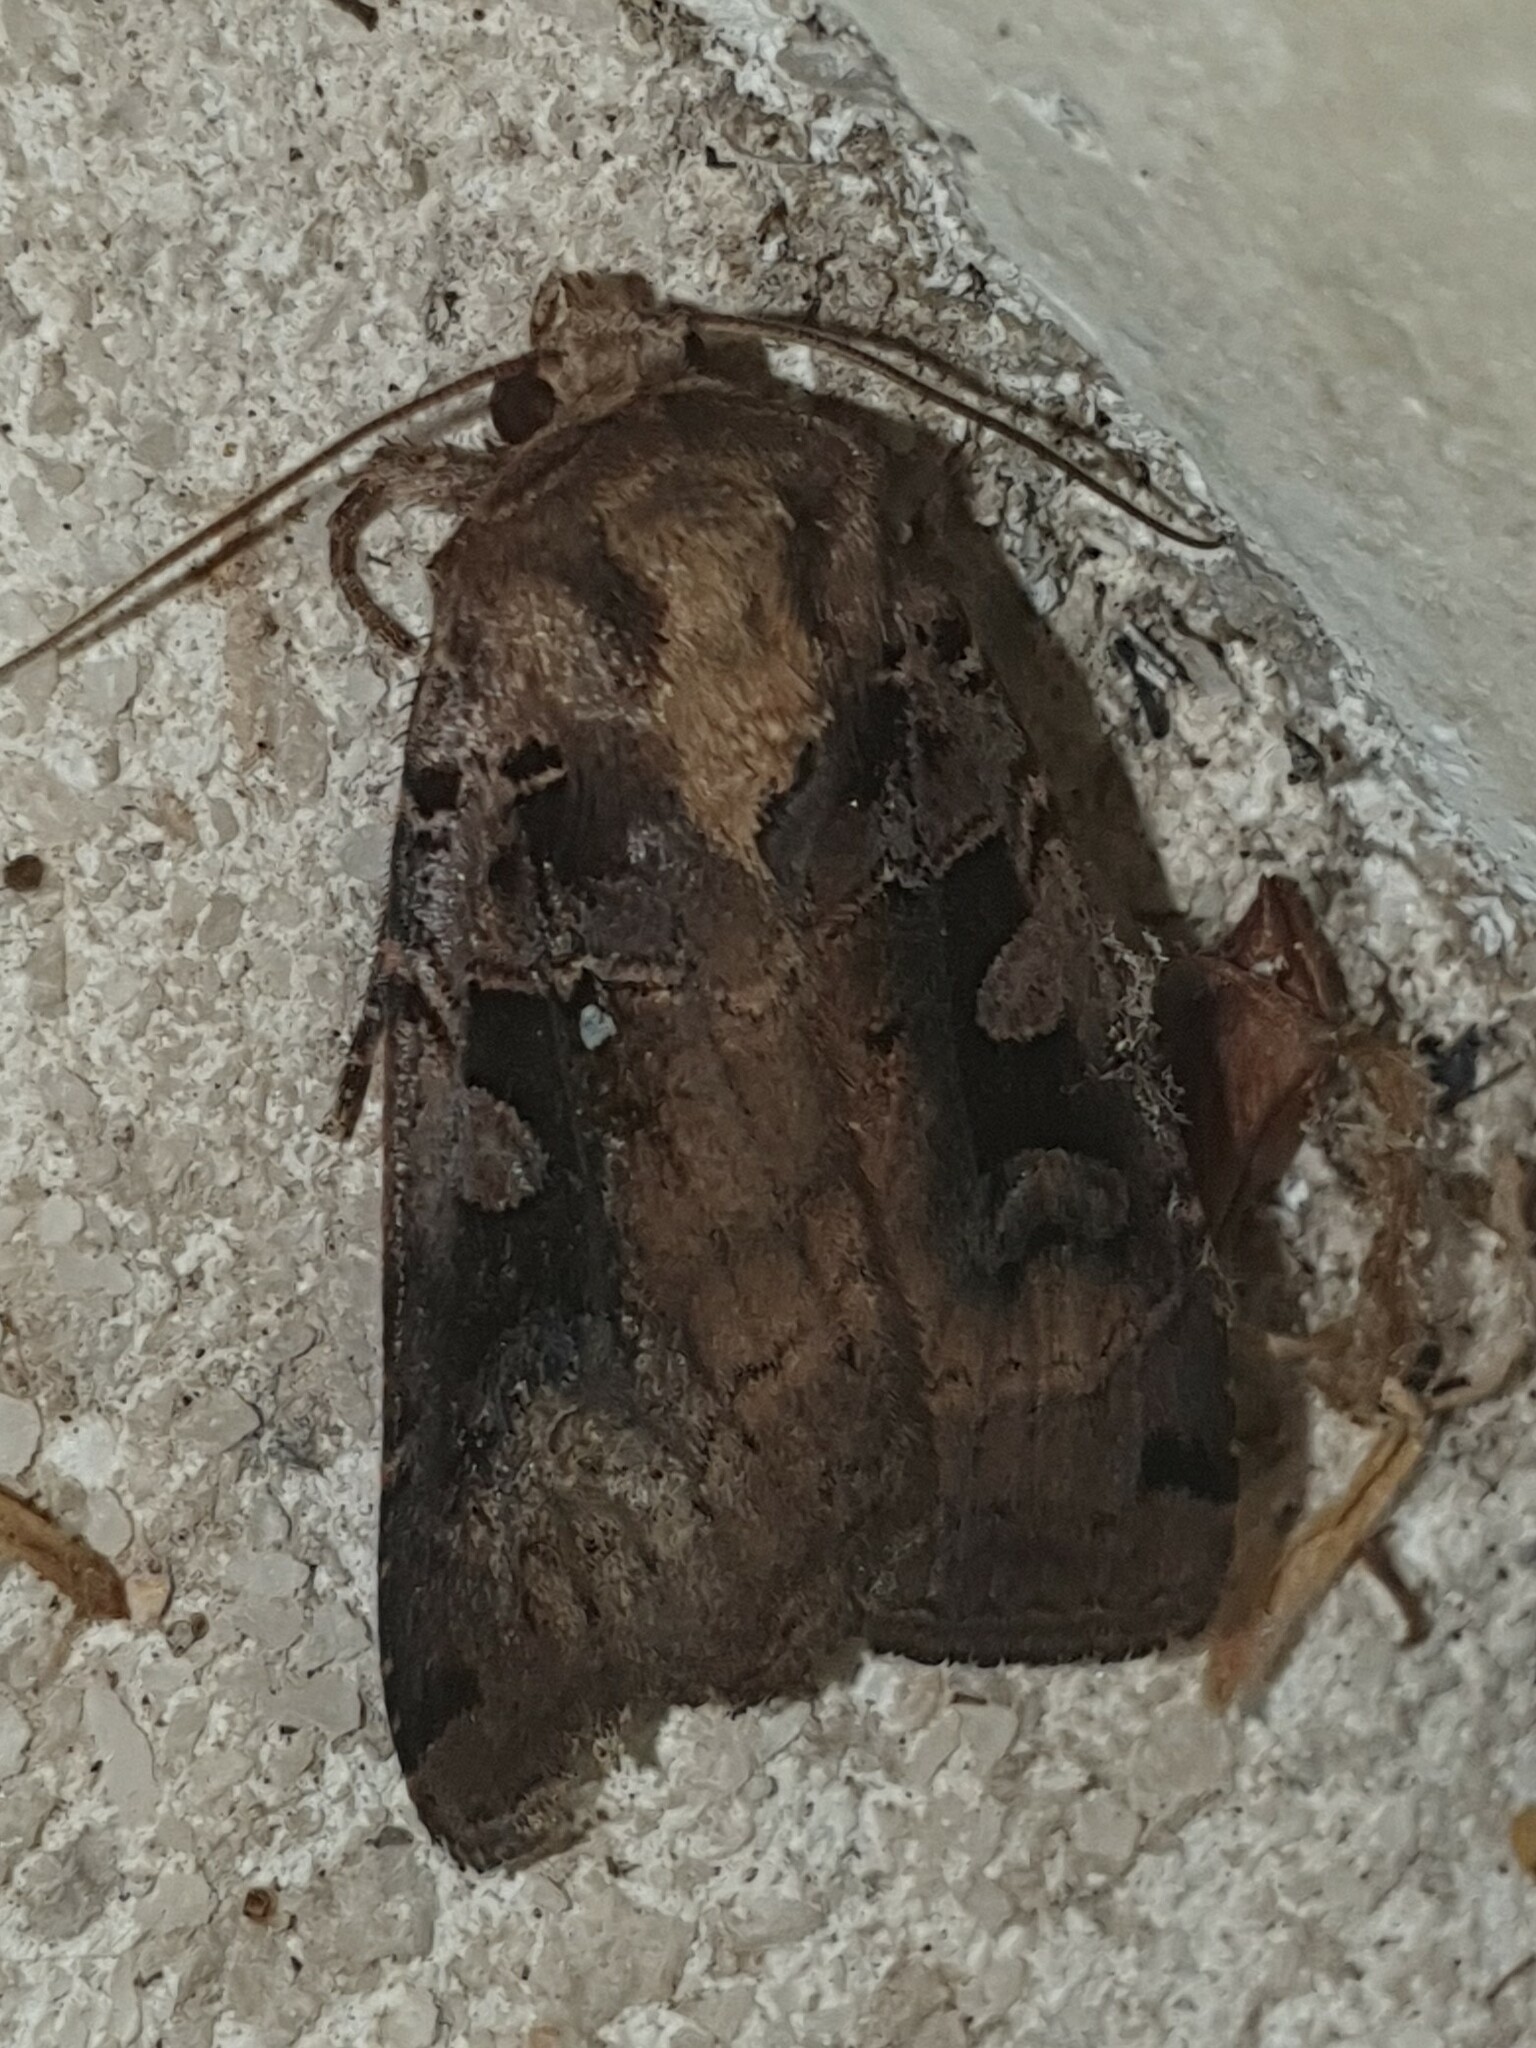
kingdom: Animalia
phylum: Arthropoda
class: Insecta
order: Lepidoptera
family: Noctuidae
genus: Xestia
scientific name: Xestia ditrapezium
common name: Triple-spotted clay
